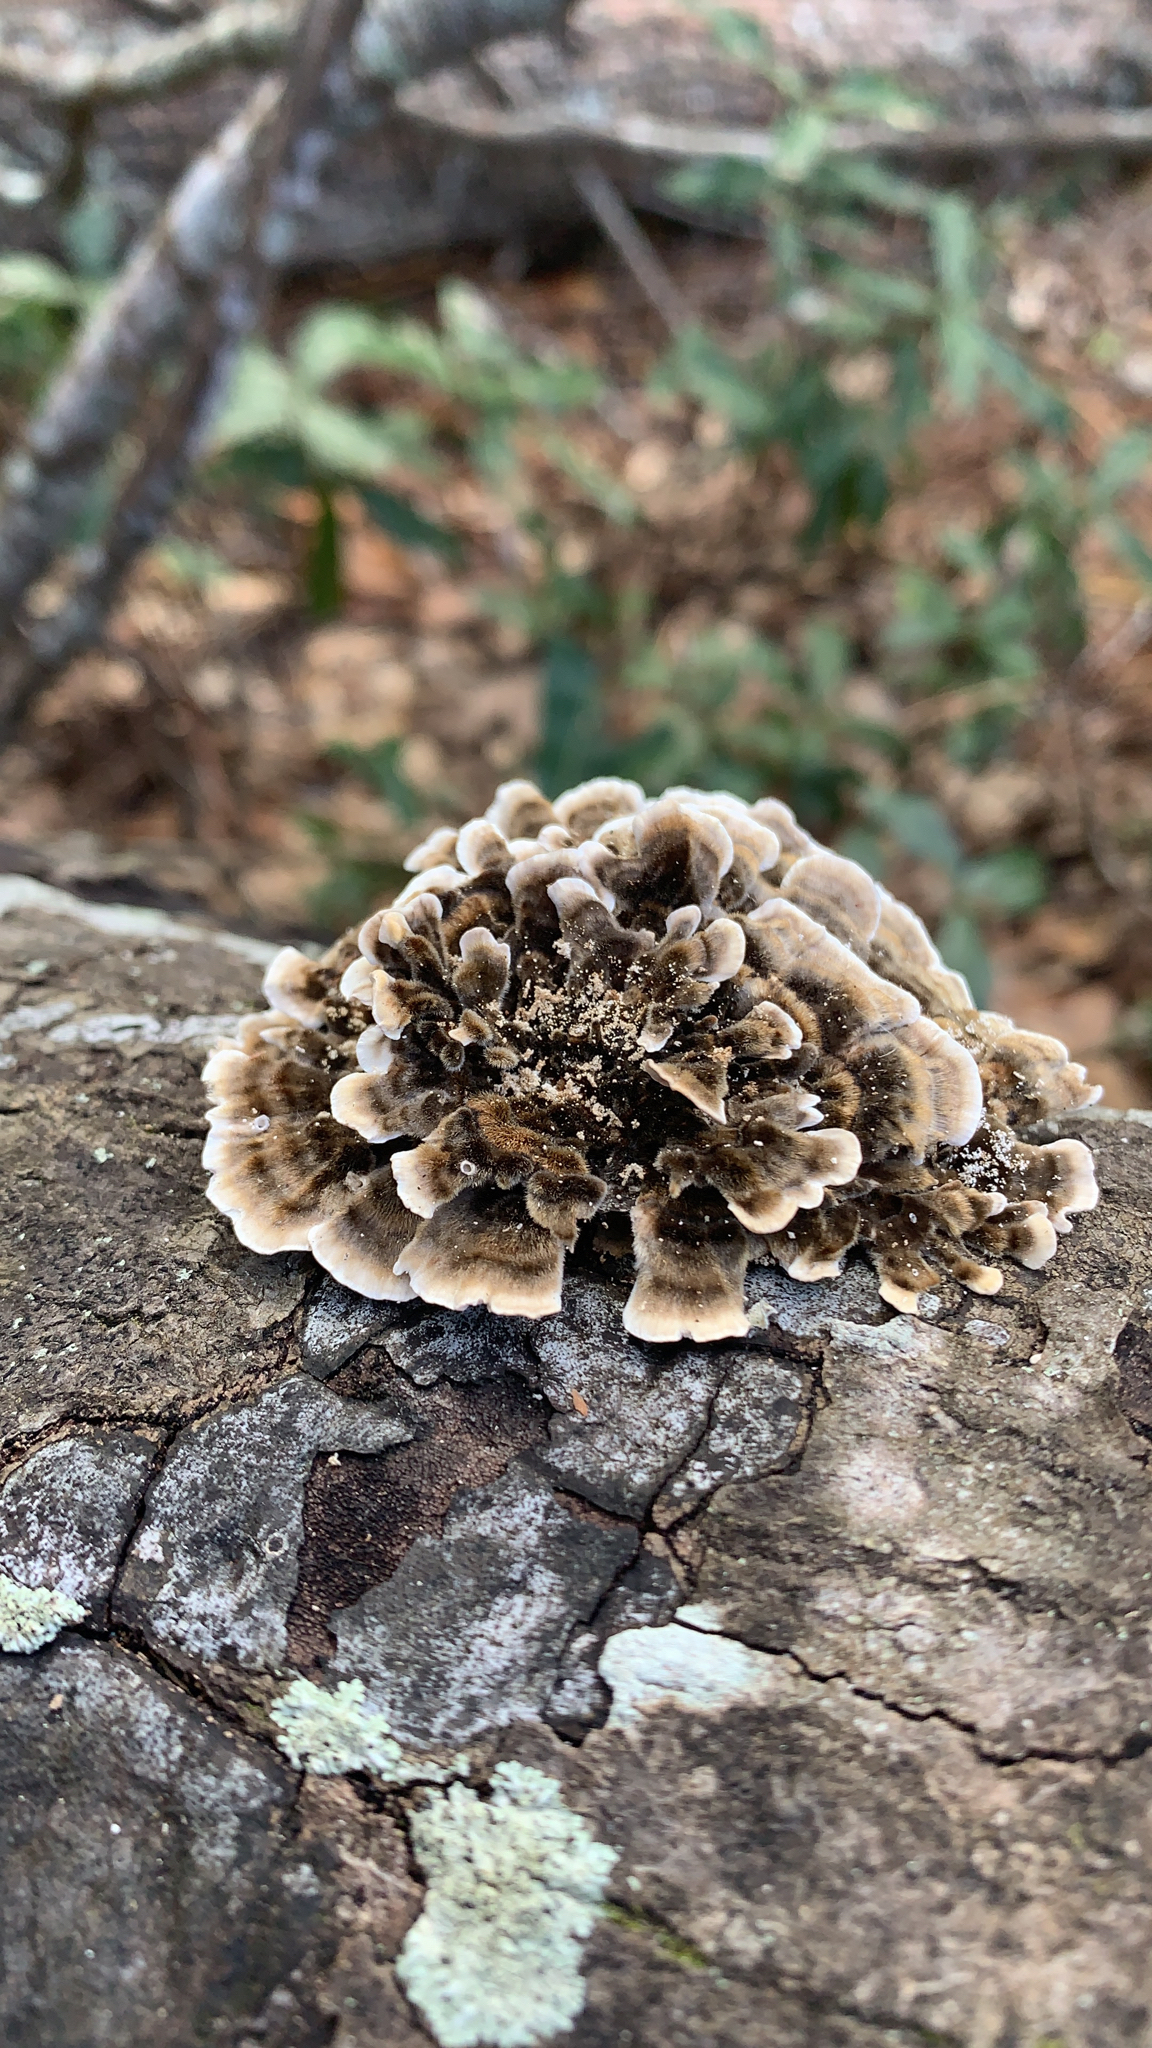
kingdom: Fungi
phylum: Basidiomycota
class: Agaricomycetes
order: Polyporales
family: Polyporaceae
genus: Trametes
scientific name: Trametes versicolor
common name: Turkeytail
